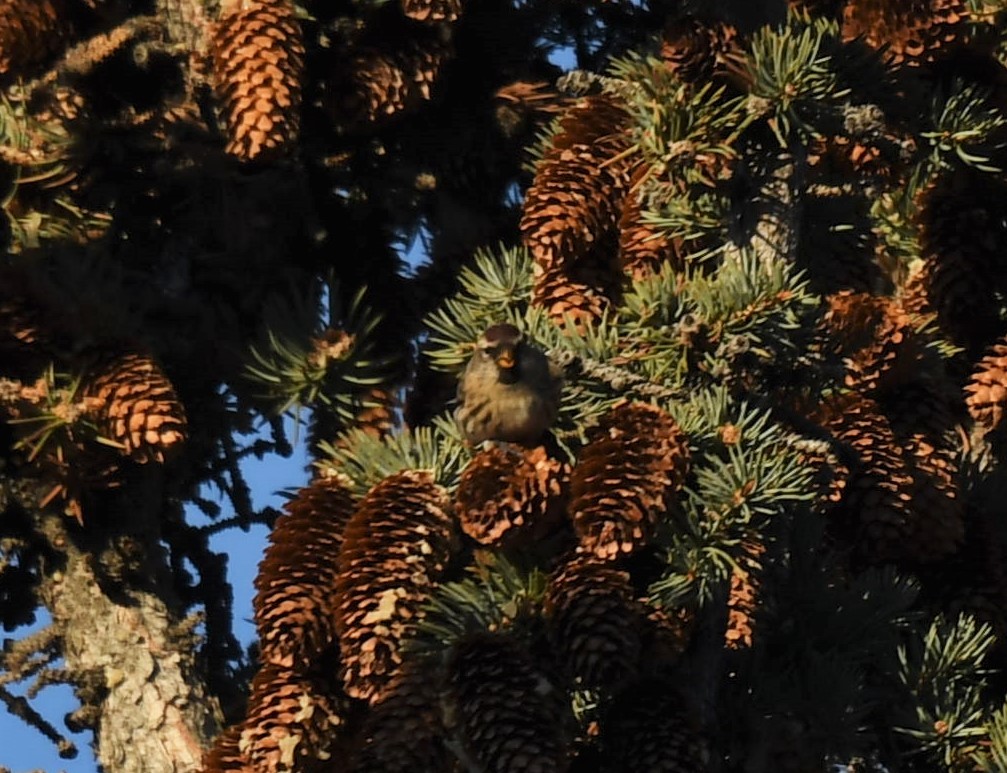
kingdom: Animalia
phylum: Chordata
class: Aves
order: Passeriformes
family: Fringillidae
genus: Acanthis
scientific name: Acanthis flammea
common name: Common redpoll
